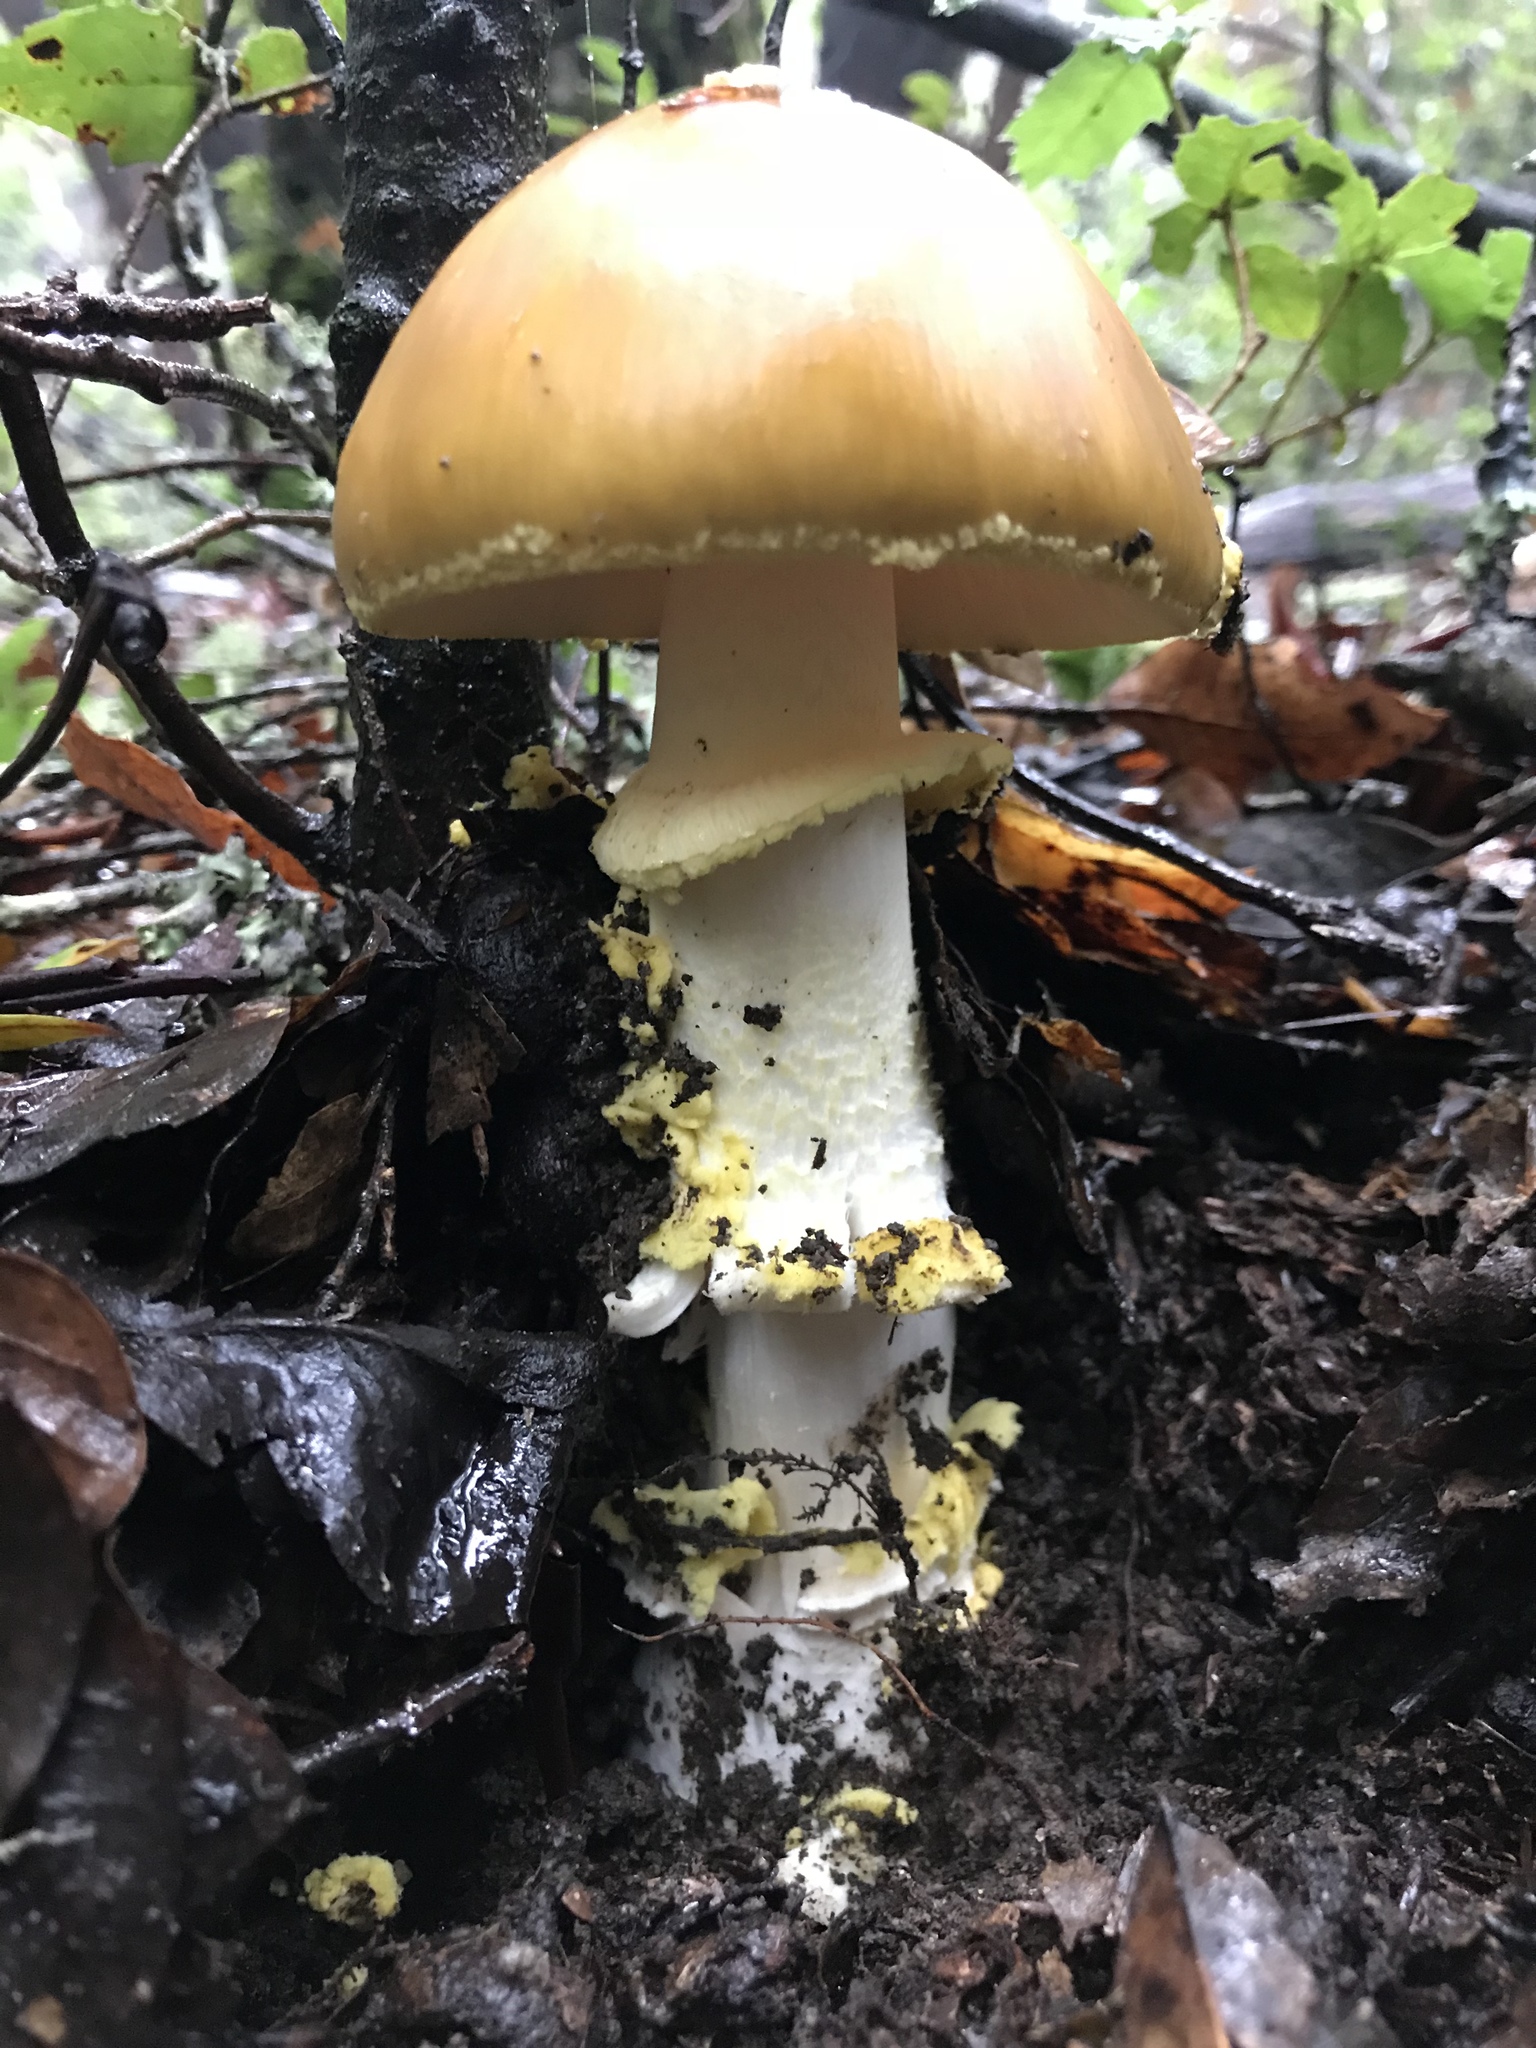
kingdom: Fungi
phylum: Basidiomycota
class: Agaricomycetes
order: Agaricales
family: Amanitaceae
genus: Amanita
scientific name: Amanita augusta
